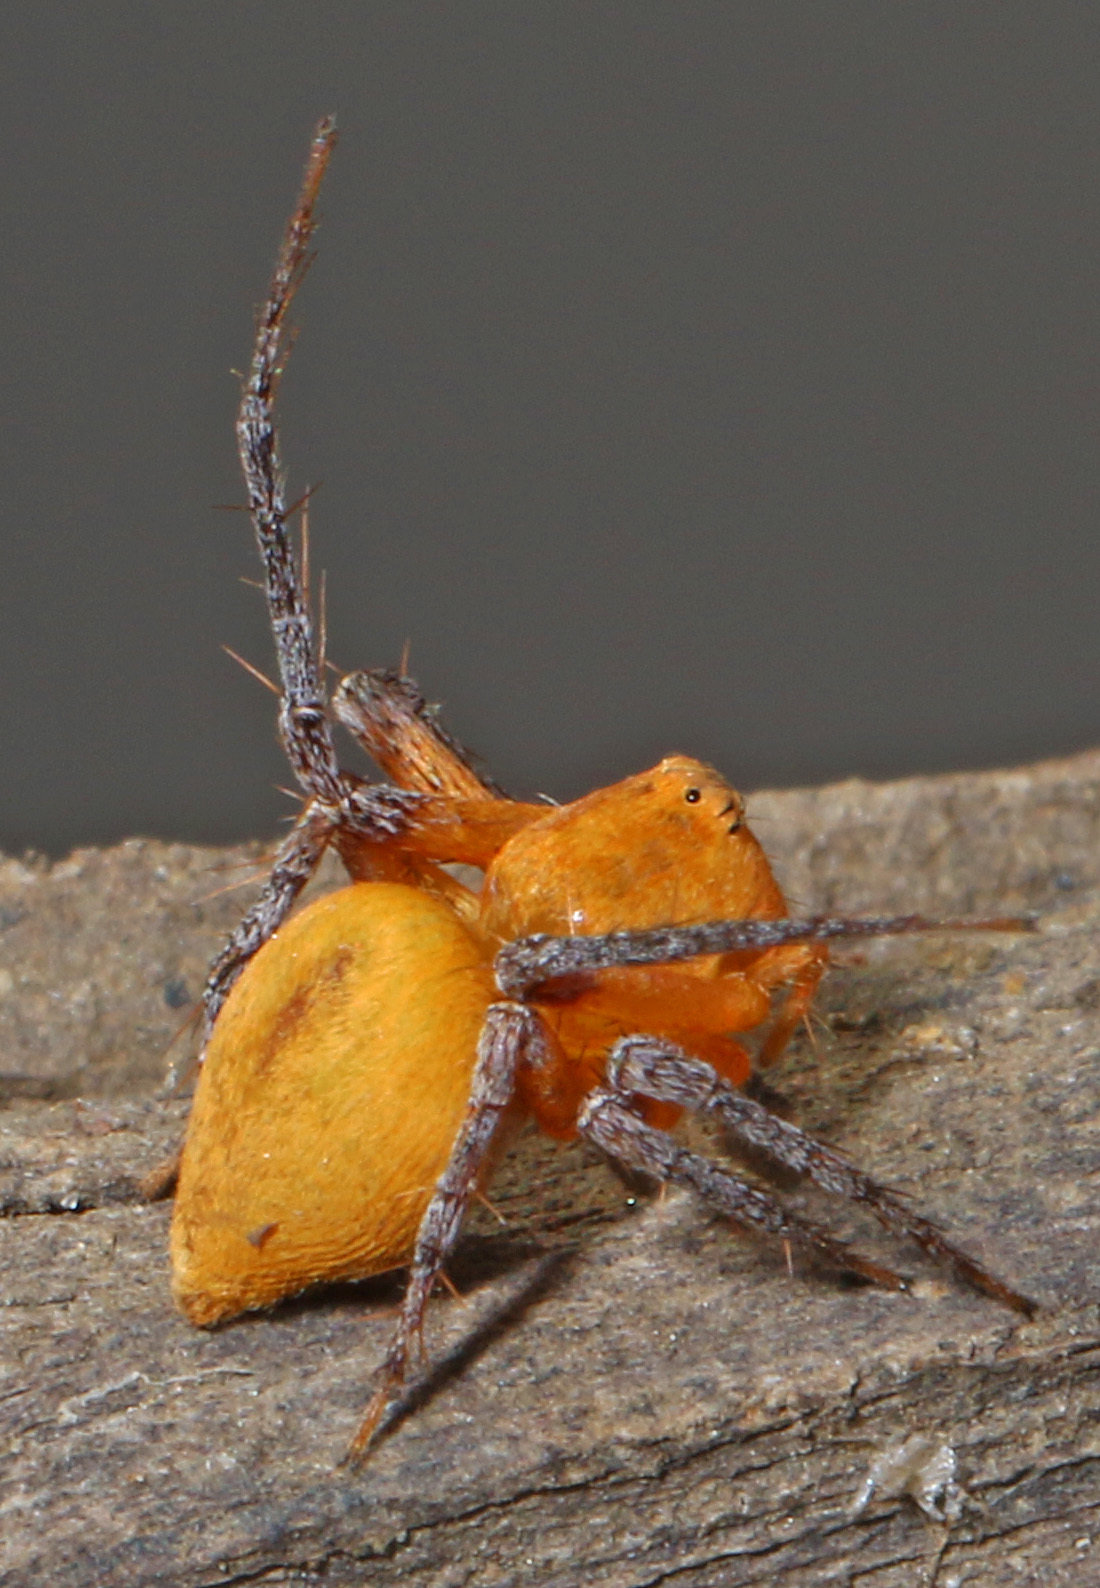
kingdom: Animalia
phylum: Arthropoda
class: Arachnida
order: Araneae
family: Oxyopidae
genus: Oxyopes
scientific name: Oxyopes flavipalpis
